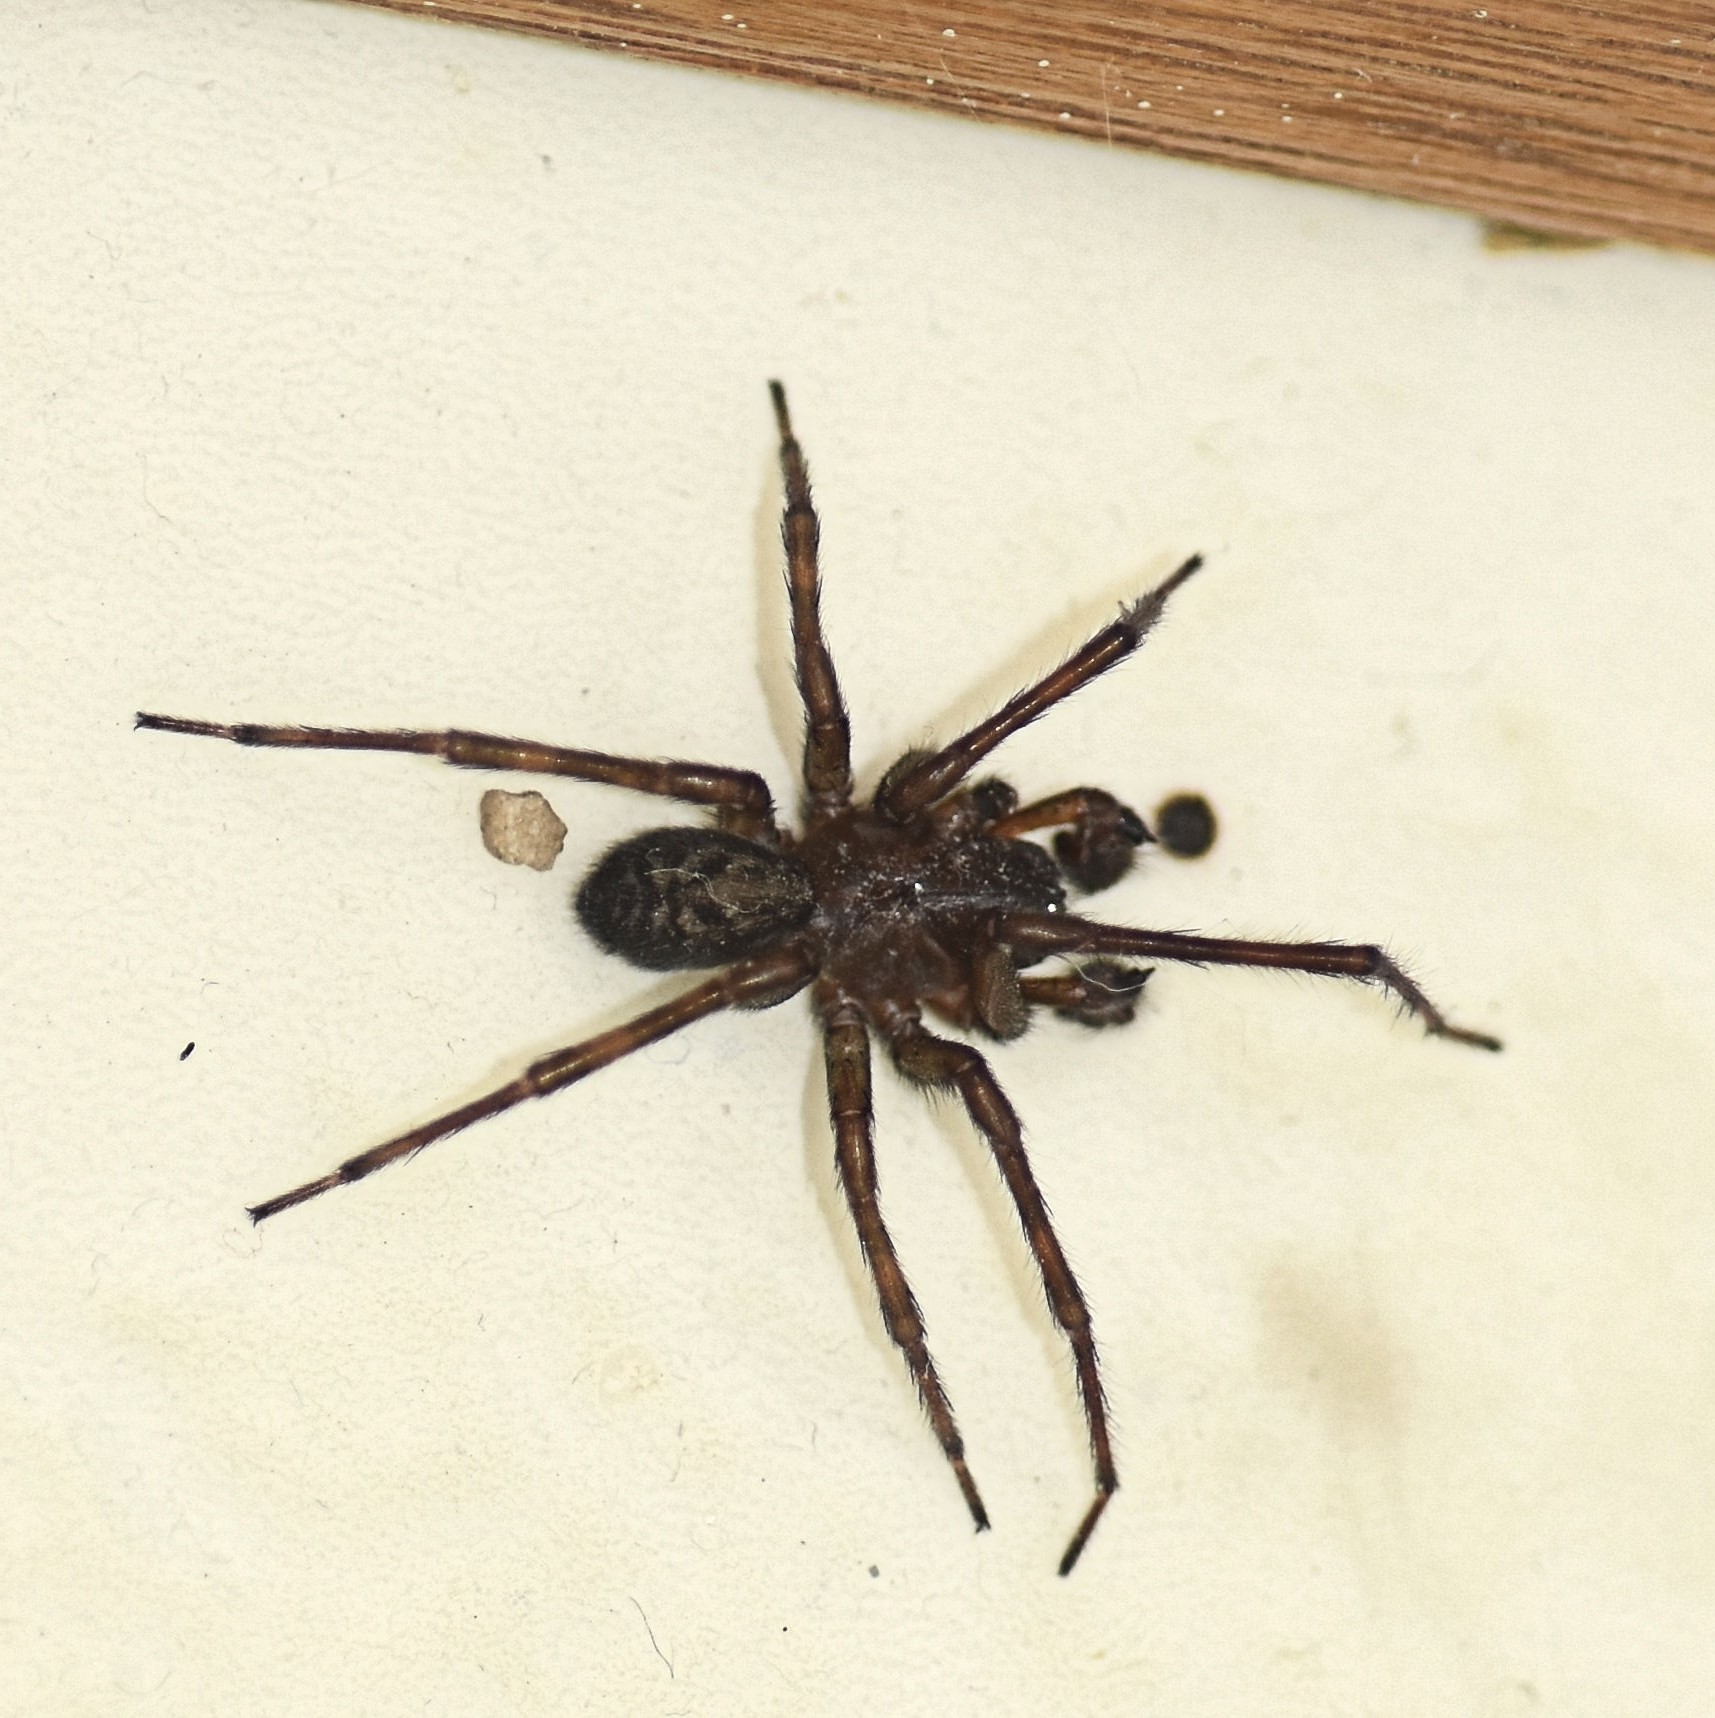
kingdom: Animalia
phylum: Arthropoda
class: Arachnida
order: Araneae
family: Amaurobiidae
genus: Amaurobius
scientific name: Amaurobius ferox
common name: Black laceweaver
